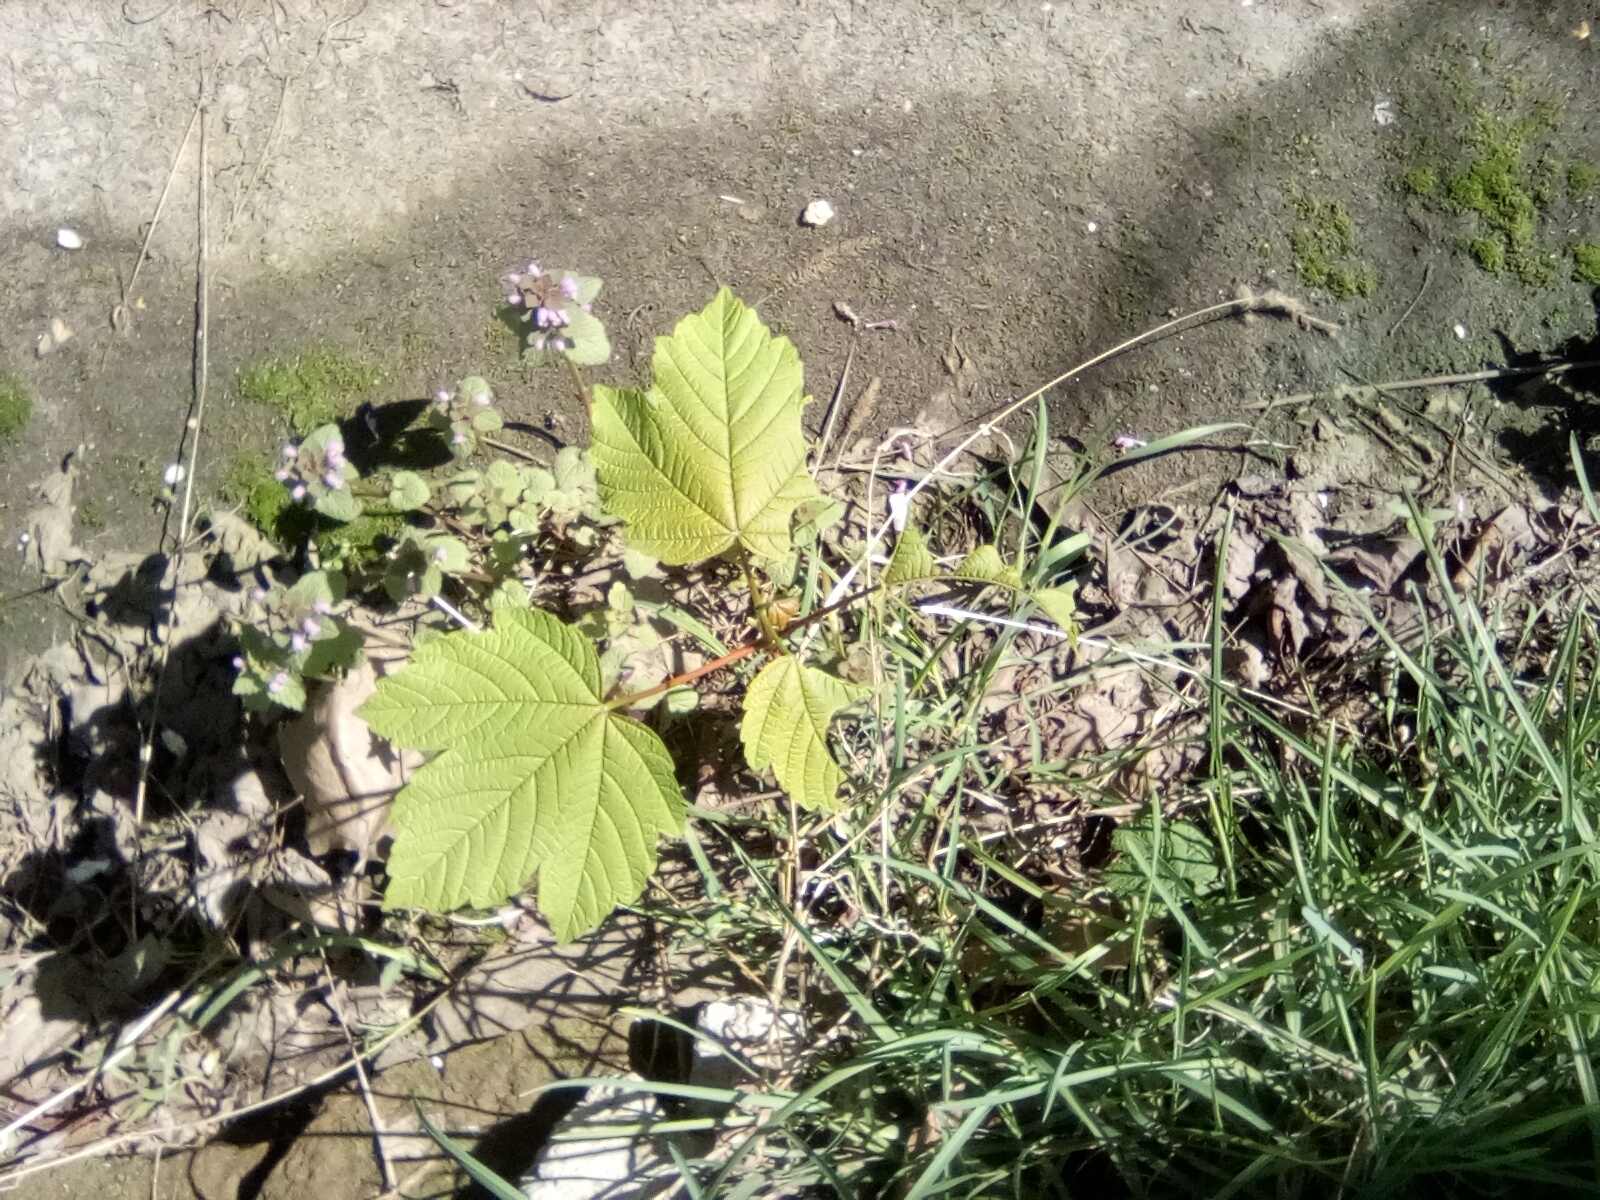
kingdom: Plantae
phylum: Tracheophyta
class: Magnoliopsida
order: Sapindales
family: Sapindaceae
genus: Acer
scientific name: Acer pseudoplatanus
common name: Sycamore
